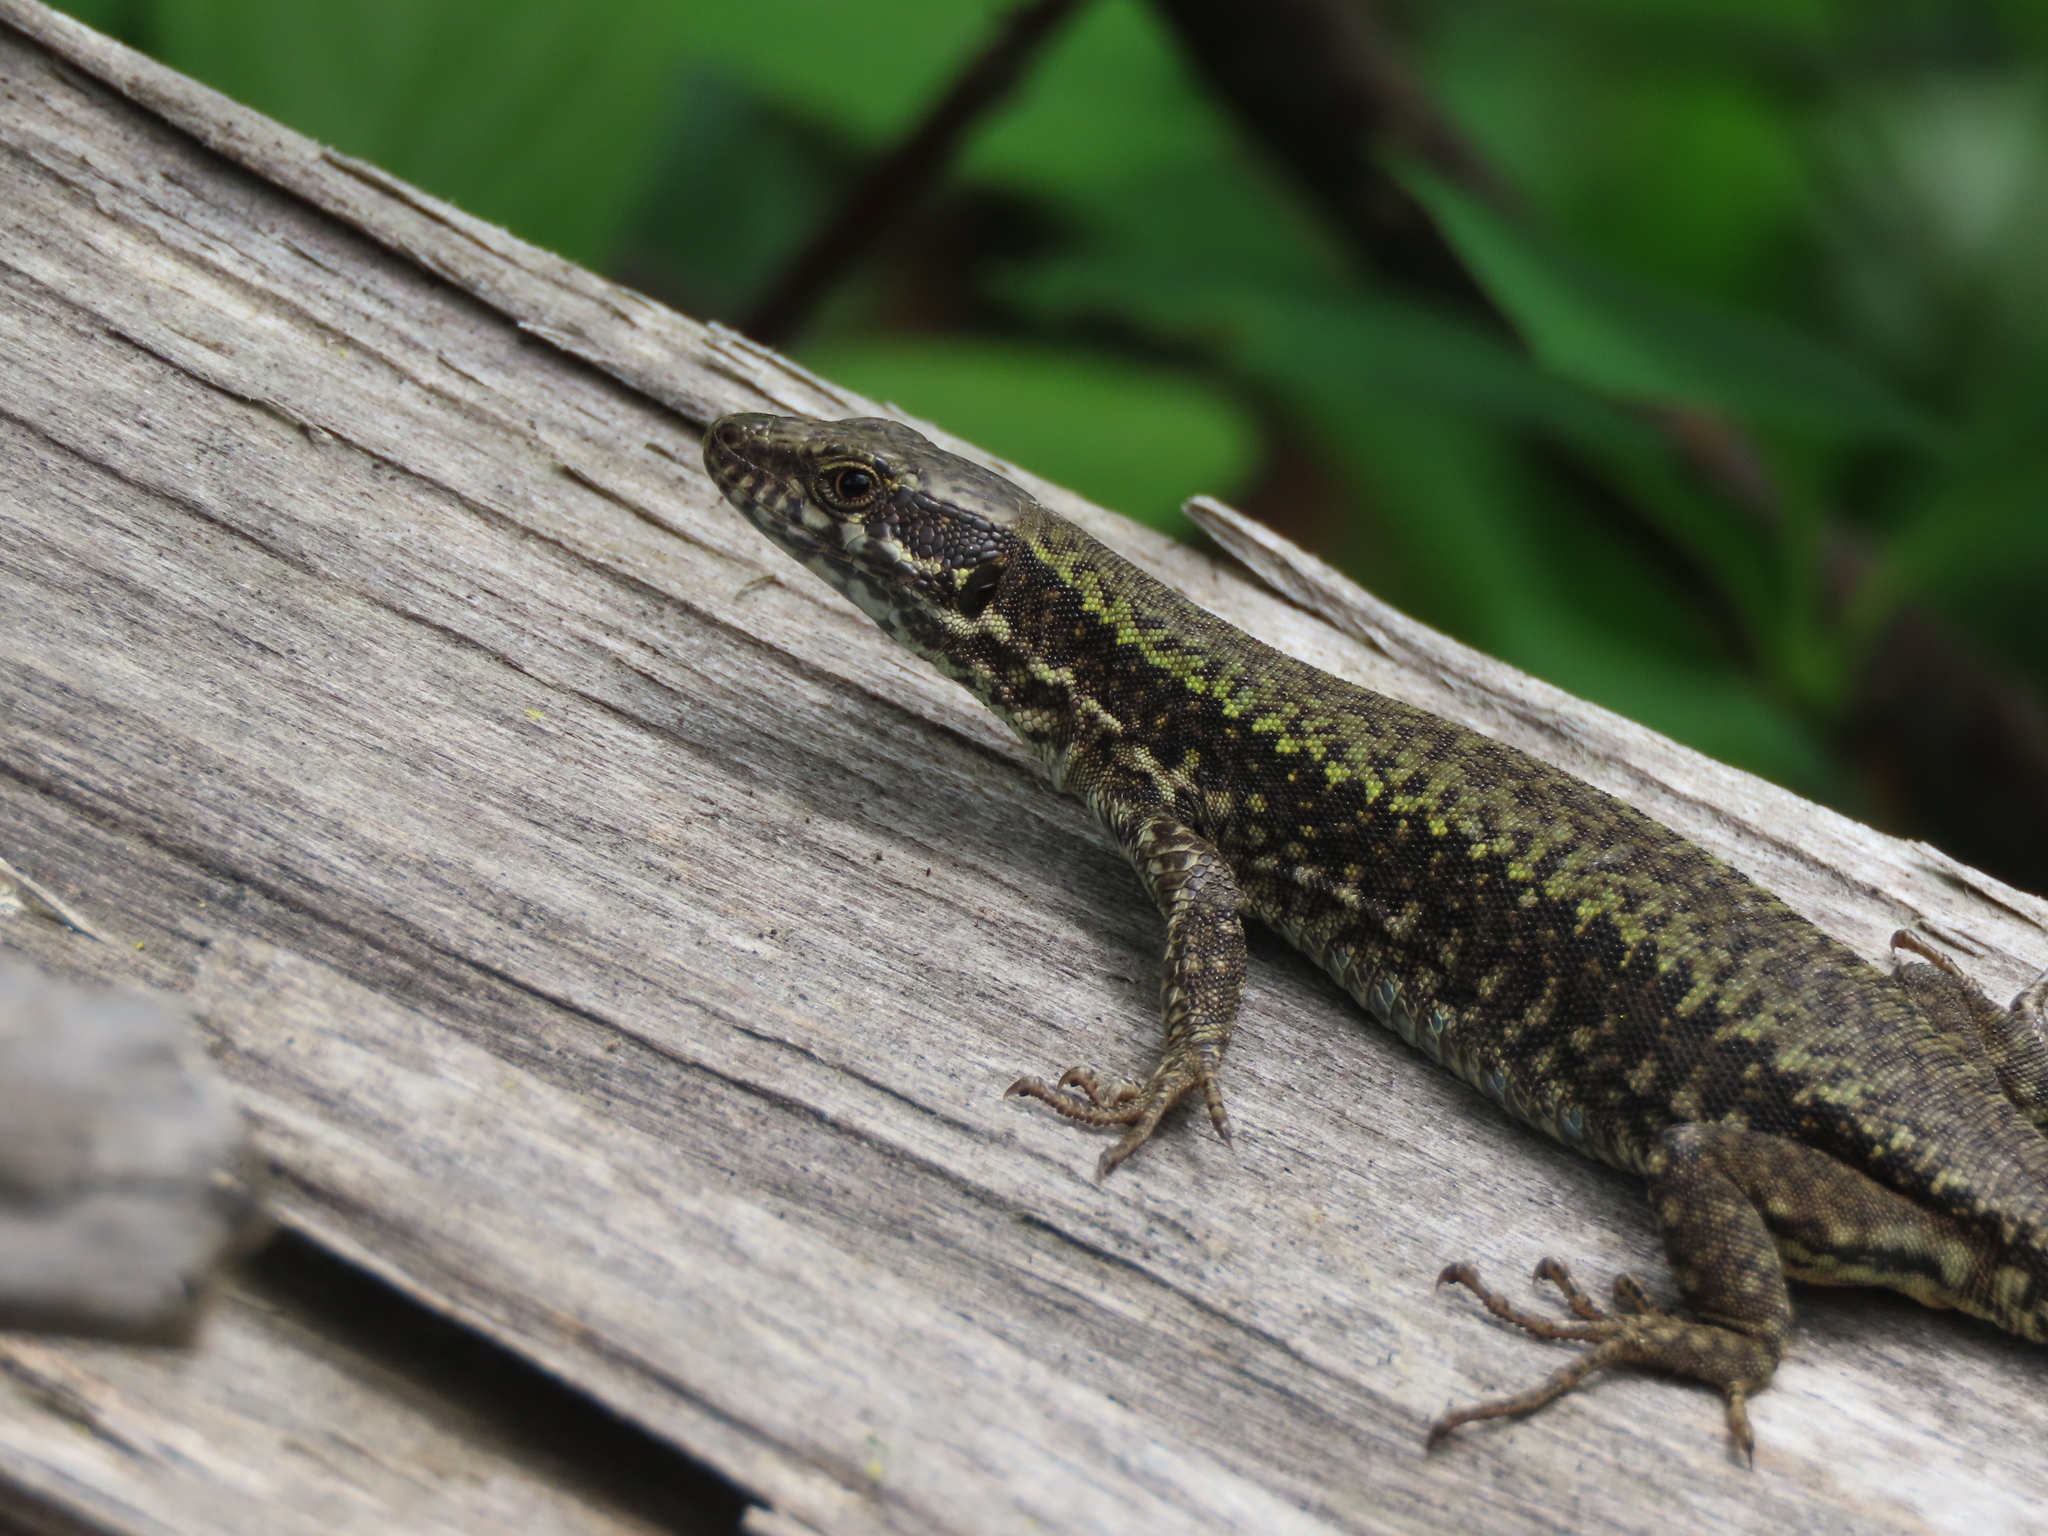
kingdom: Animalia
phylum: Chordata
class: Squamata
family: Lacertidae
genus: Podarcis
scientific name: Podarcis muralis
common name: Common wall lizard
